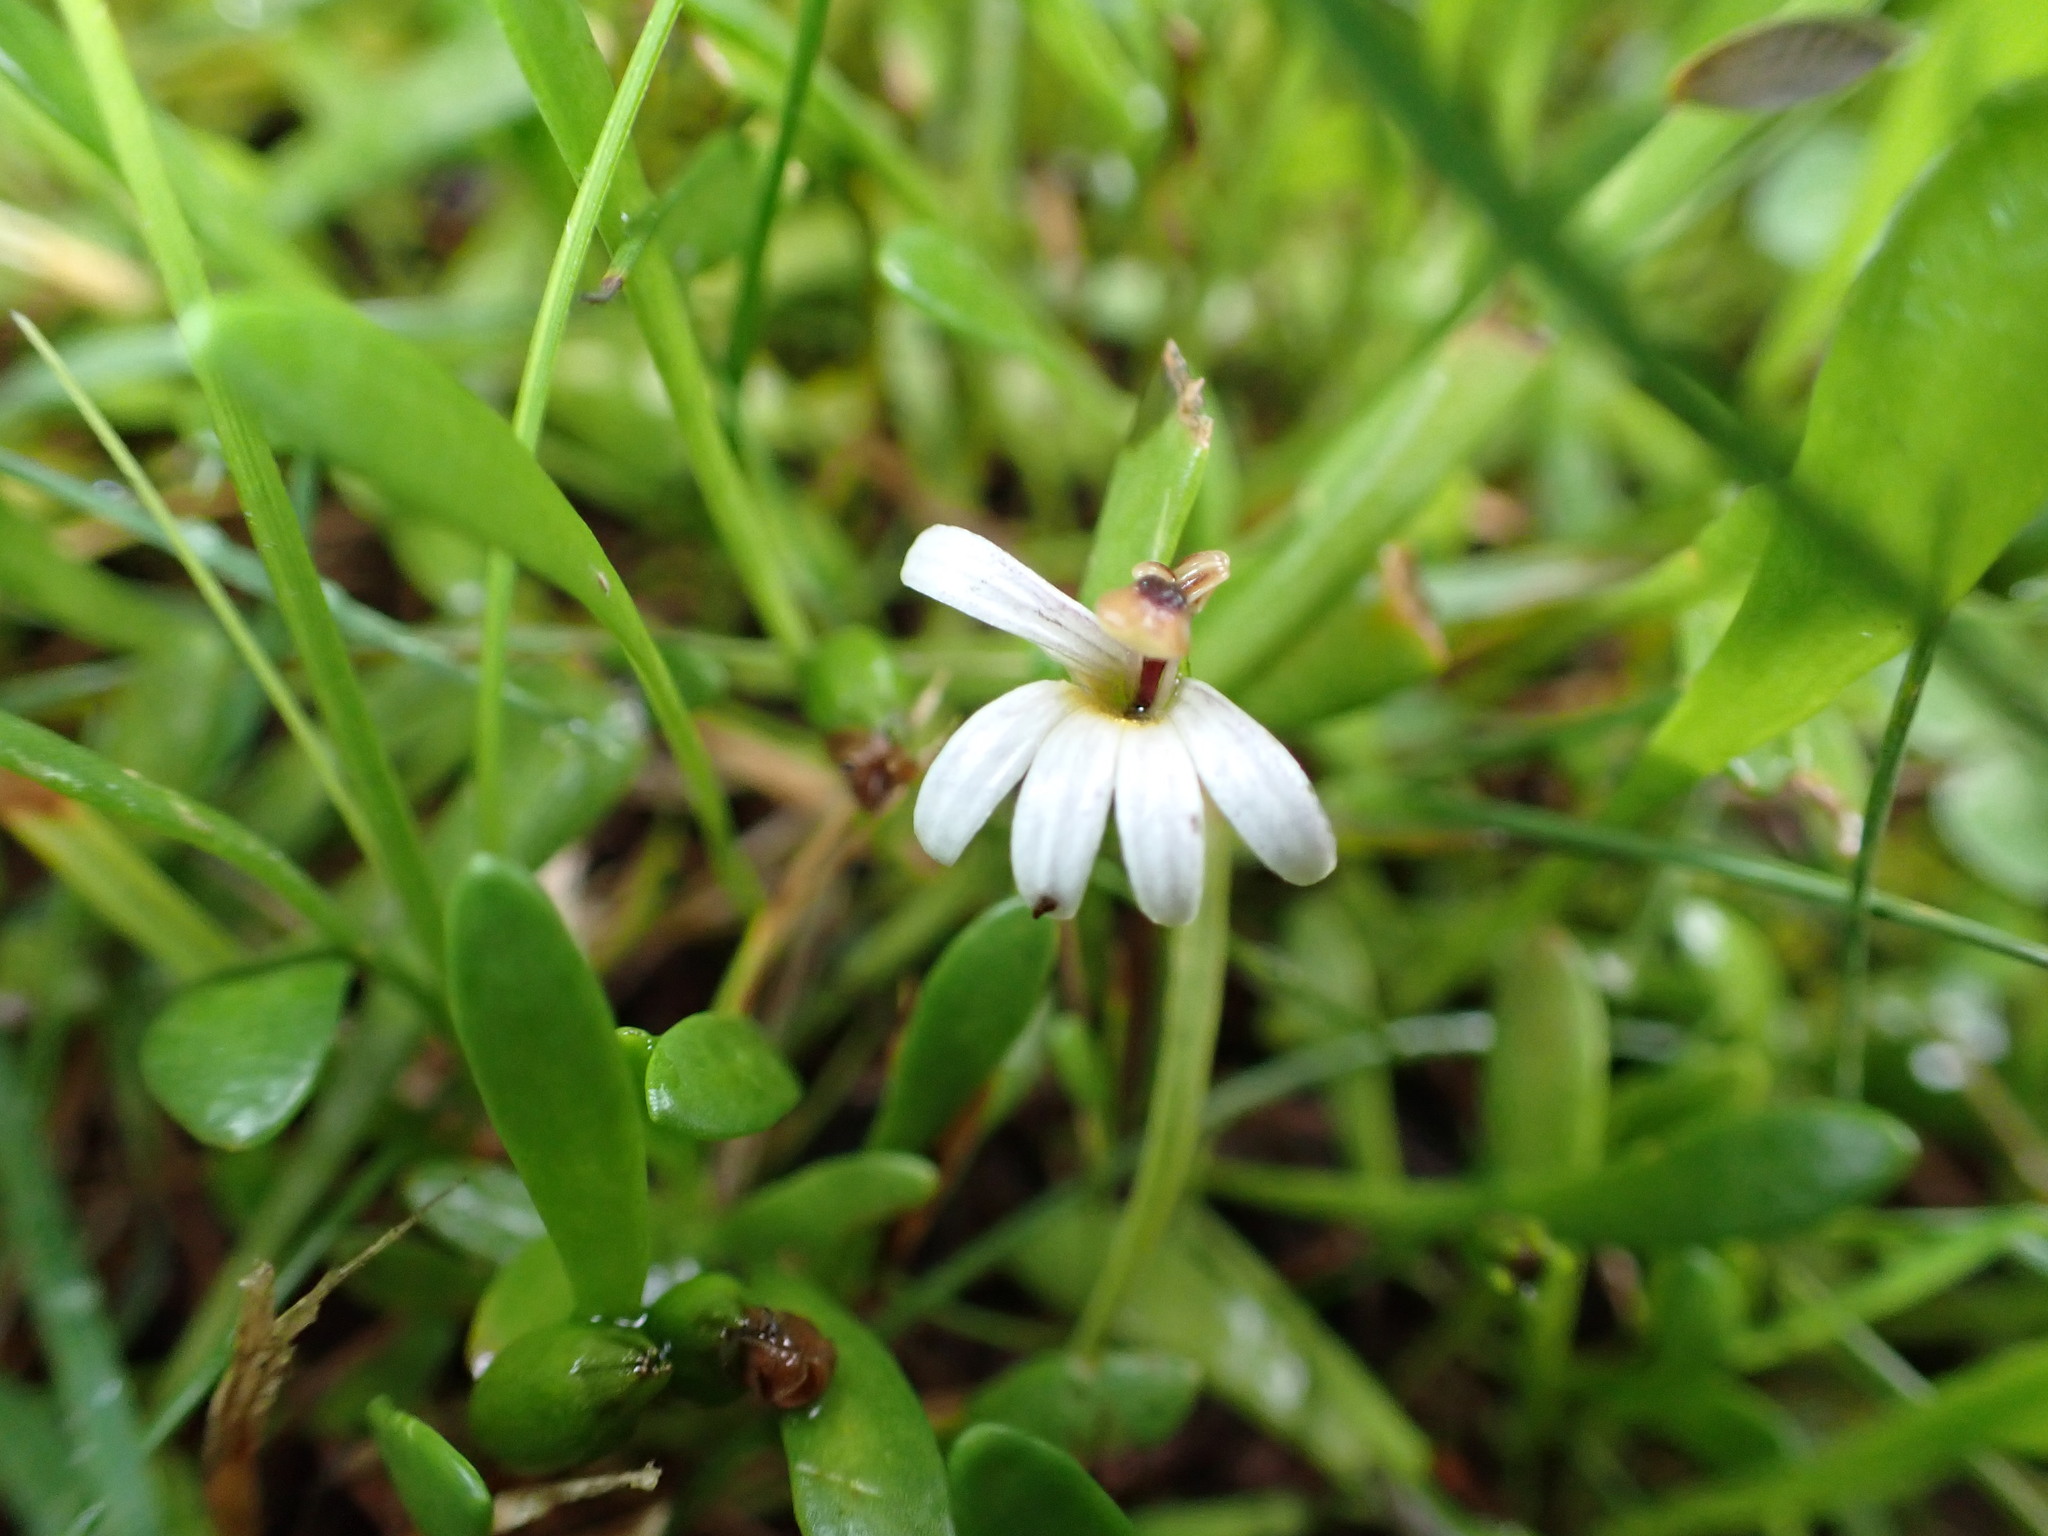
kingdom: Plantae
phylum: Tracheophyta
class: Magnoliopsida
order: Asterales
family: Goodeniaceae
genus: Goodenia
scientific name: Goodenia radicans
